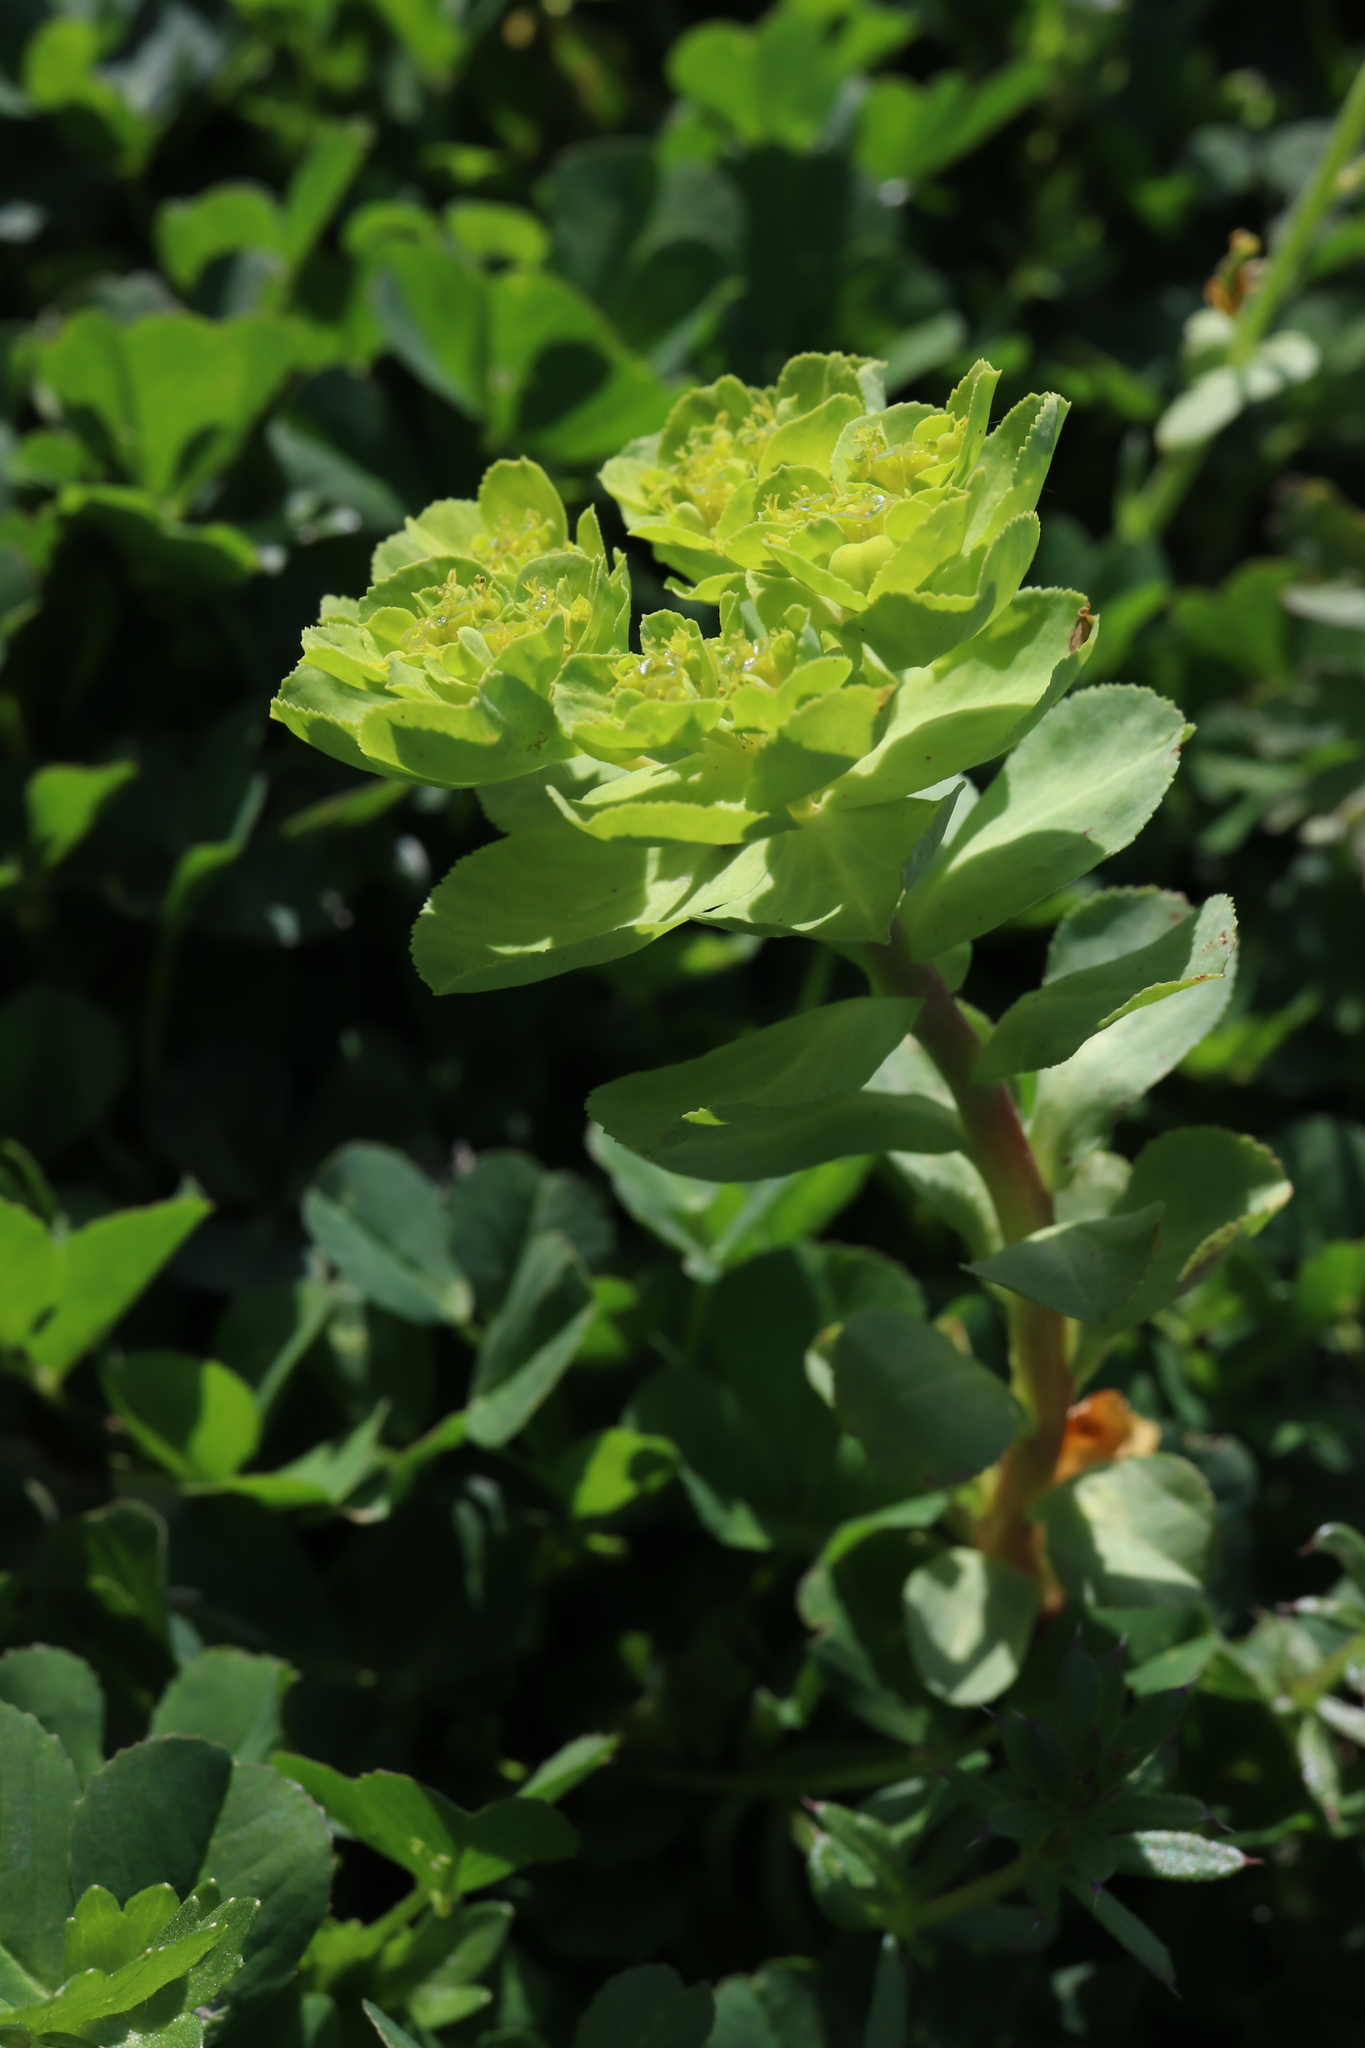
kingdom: Plantae
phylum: Tracheophyta
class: Magnoliopsida
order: Malpighiales
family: Euphorbiaceae
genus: Euphorbia
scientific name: Euphorbia helioscopia
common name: Sun spurge
